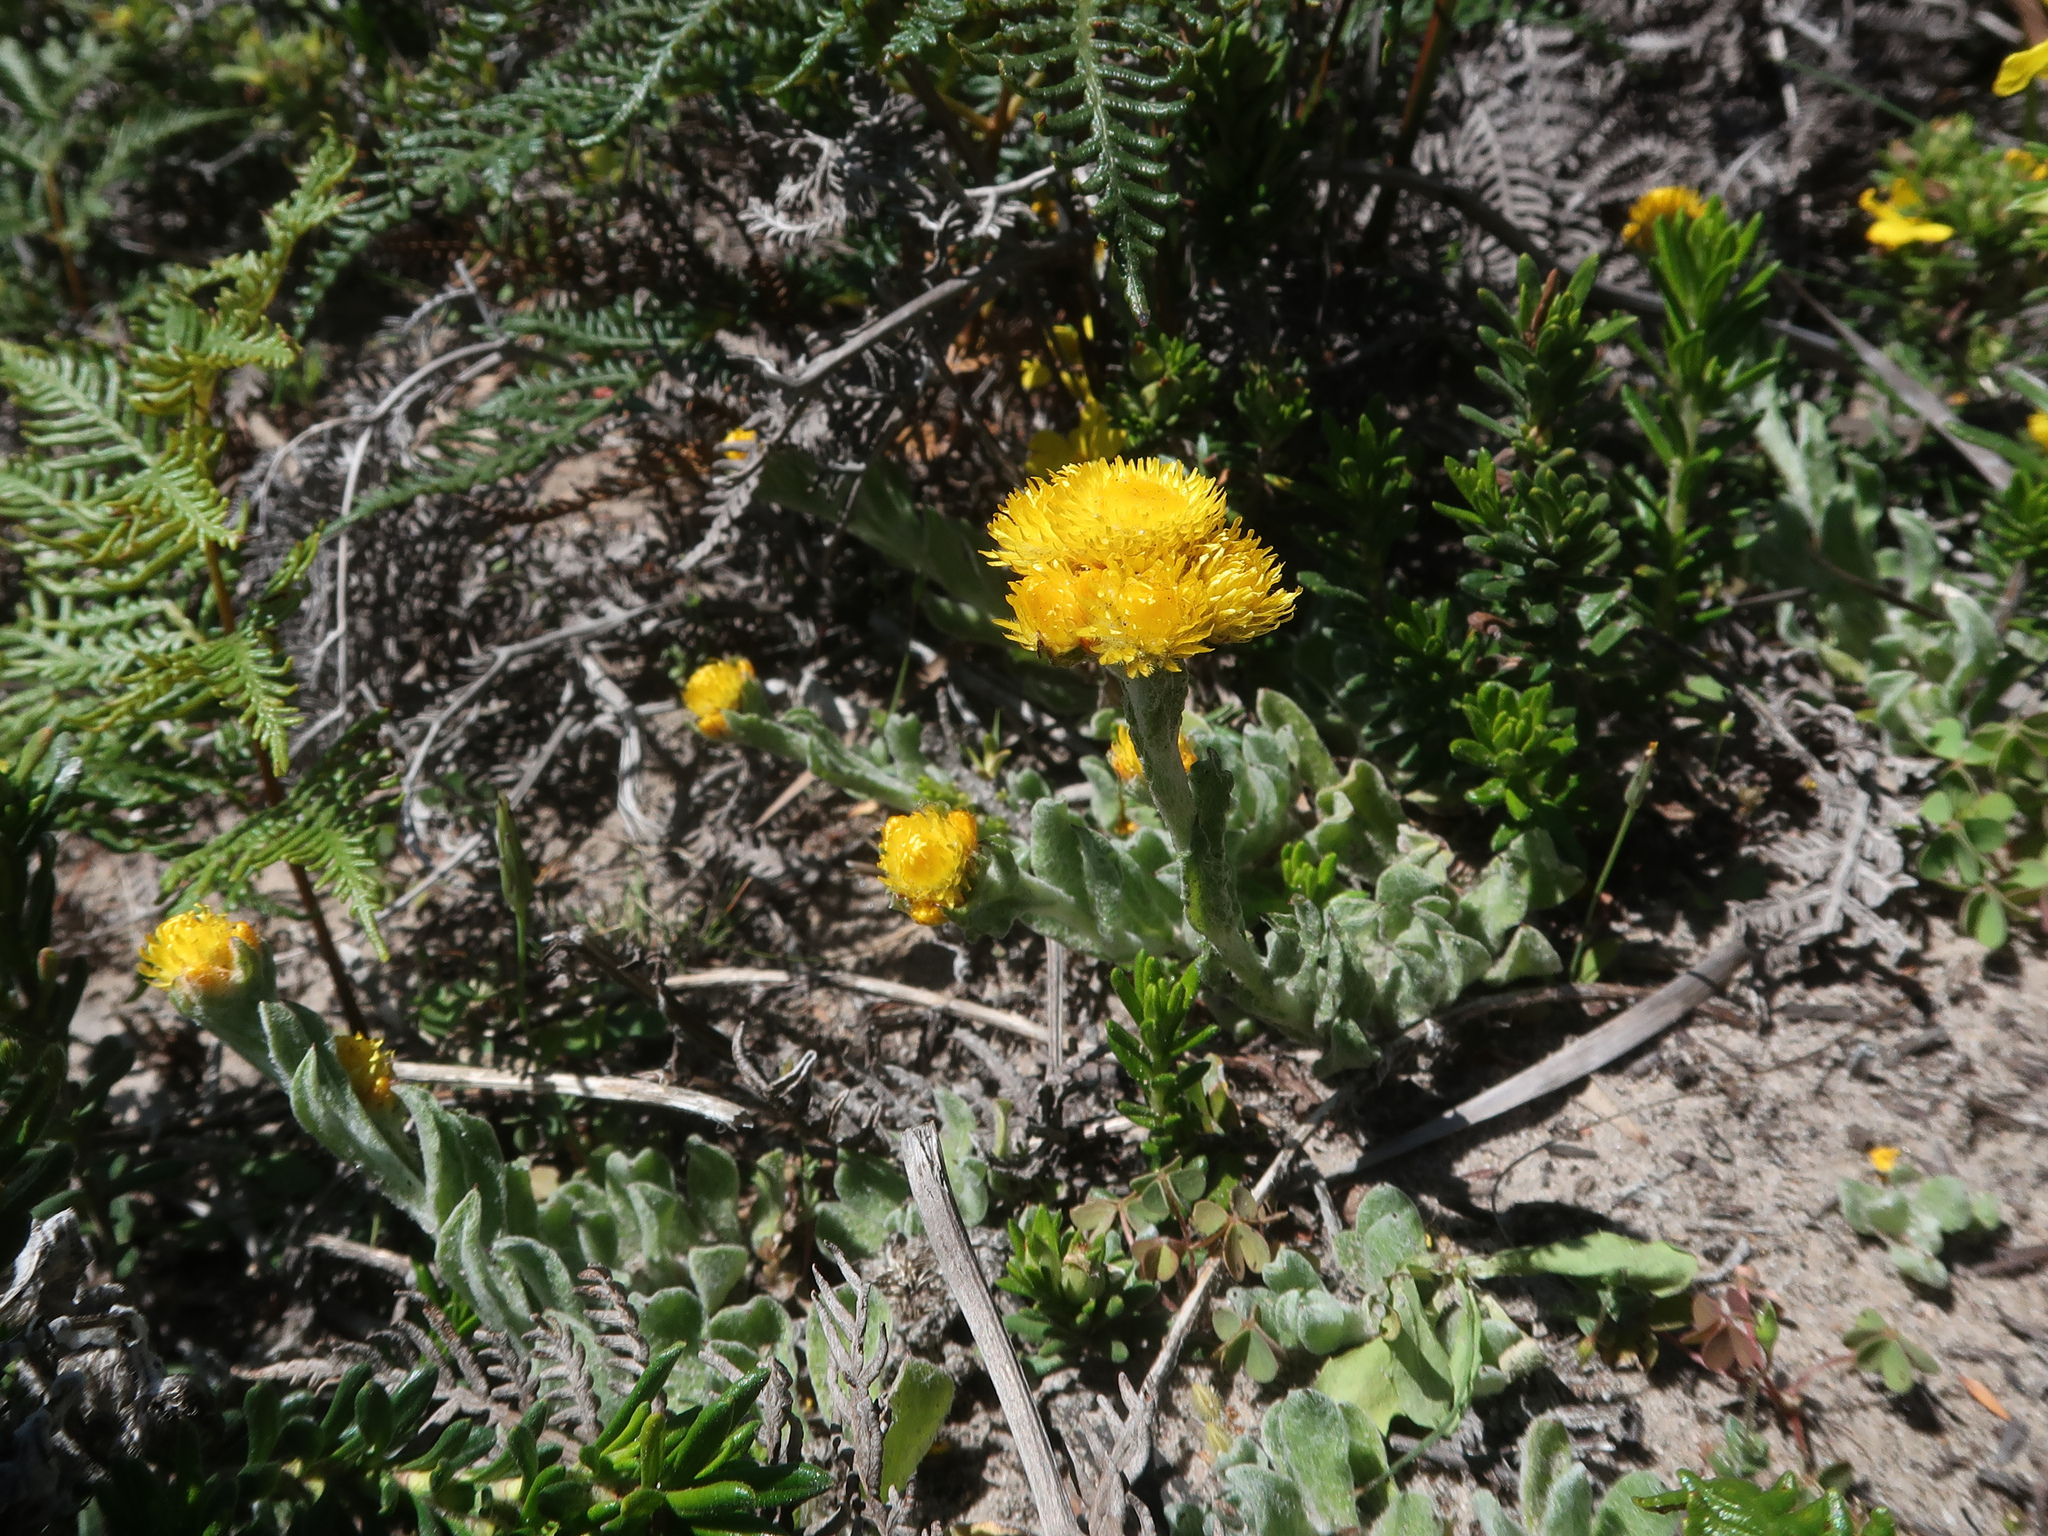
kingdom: Plantae
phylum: Tracheophyta
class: Magnoliopsida
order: Asterales
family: Asteraceae
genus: Chrysocephalum
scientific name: Chrysocephalum apiculatum
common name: Common everlasting
